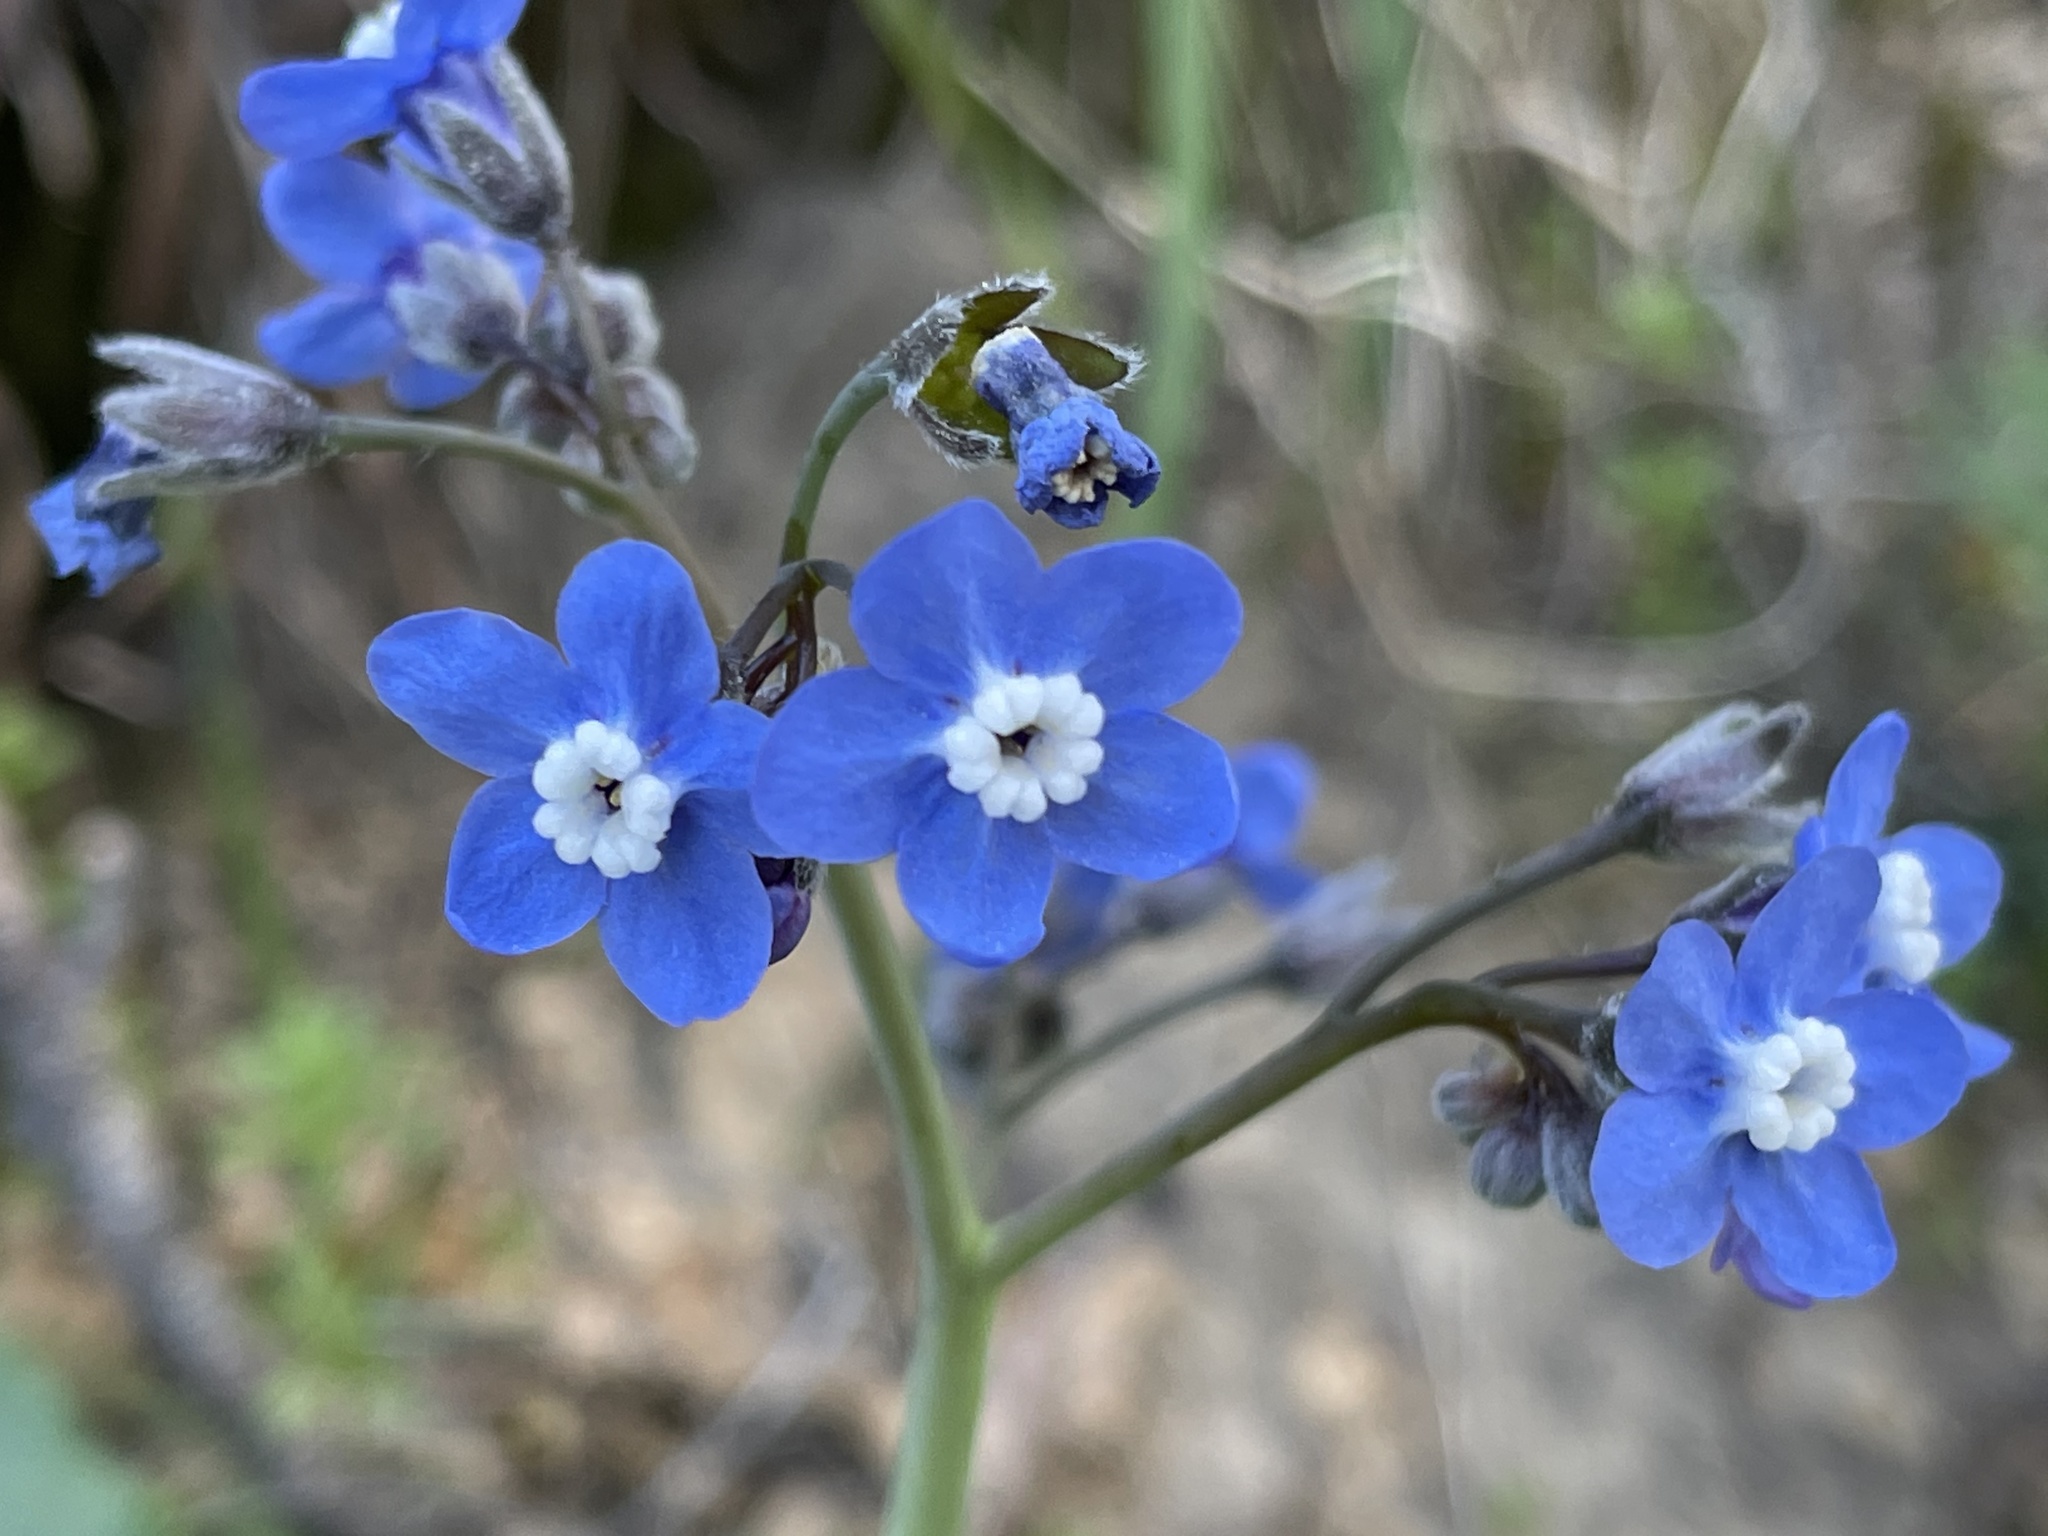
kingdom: Plantae
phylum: Tracheophyta
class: Magnoliopsida
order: Boraginales
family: Boraginaceae
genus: Adelinia
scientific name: Adelinia grande
